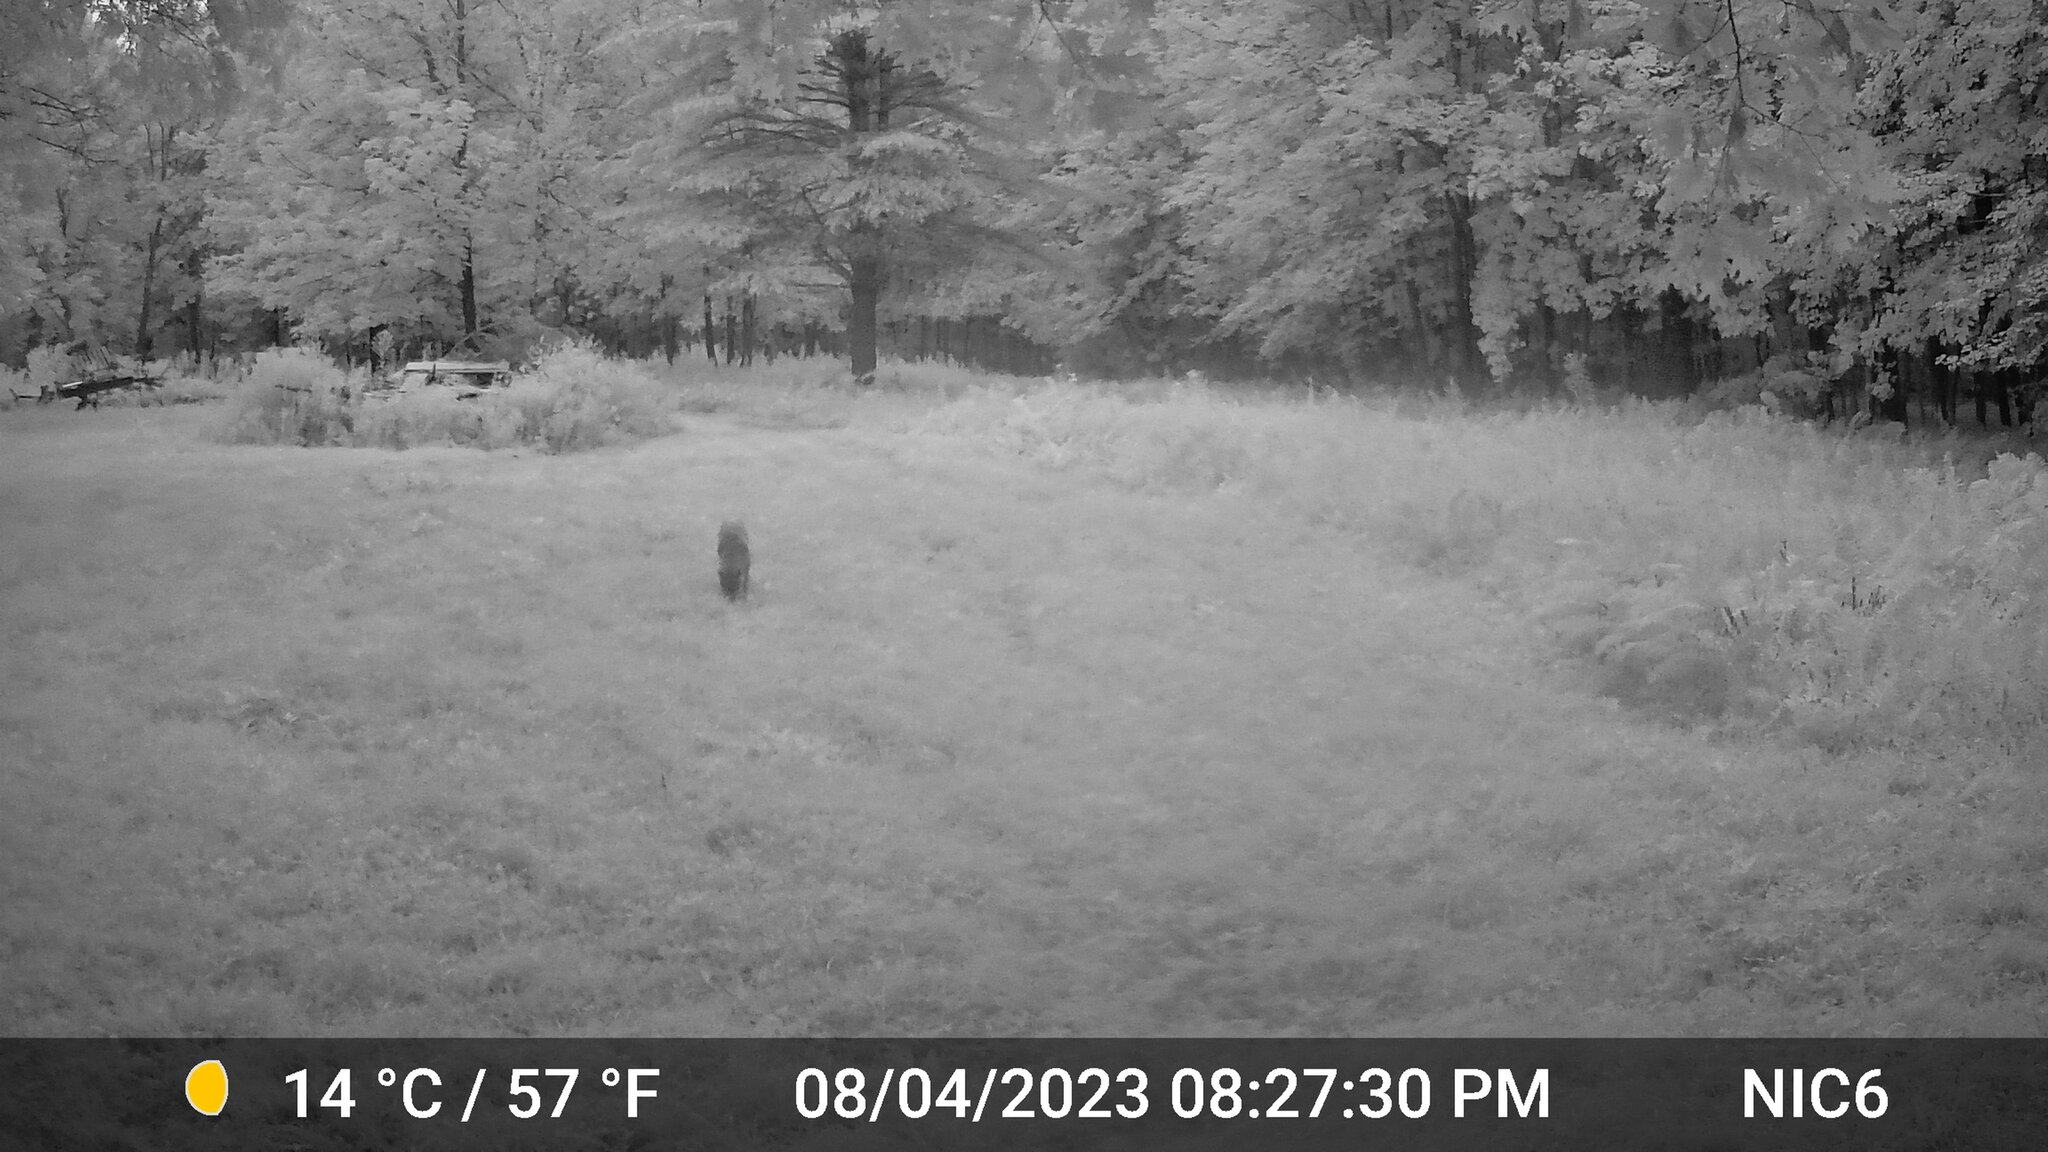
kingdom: Animalia
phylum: Chordata
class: Mammalia
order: Carnivora
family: Canidae
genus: Canis
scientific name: Canis latrans
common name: Coyote
